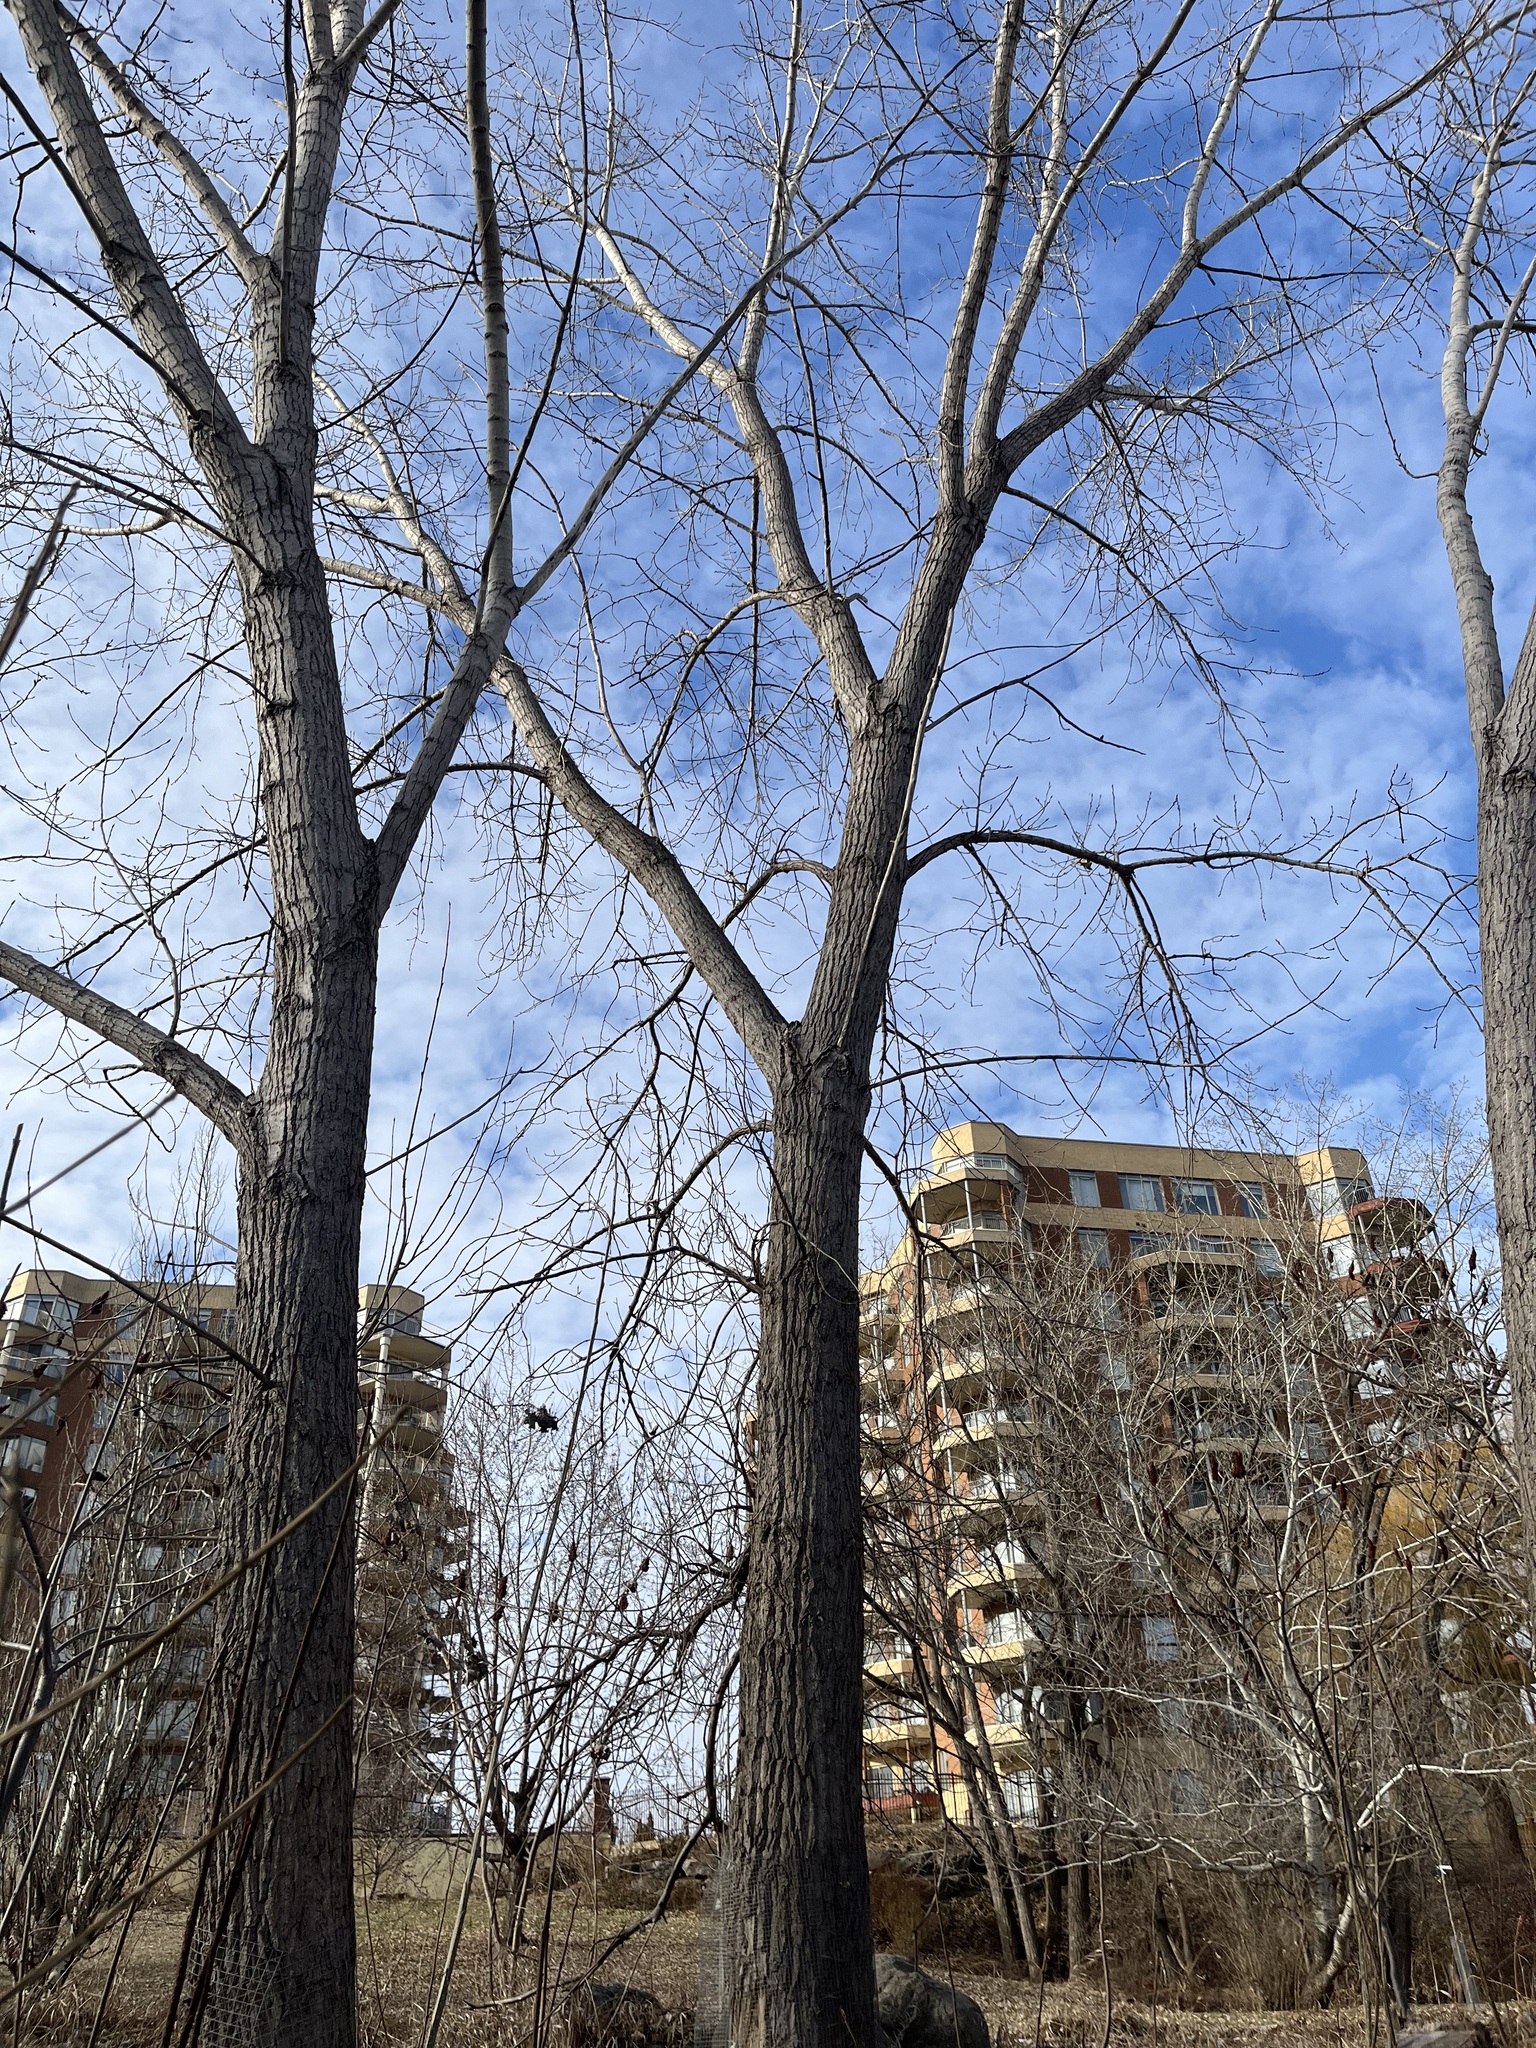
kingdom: Plantae
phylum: Tracheophyta
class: Magnoliopsida
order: Malpighiales
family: Salicaceae
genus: Populus
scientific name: Populus deltoides
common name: Eastern cottonwood
